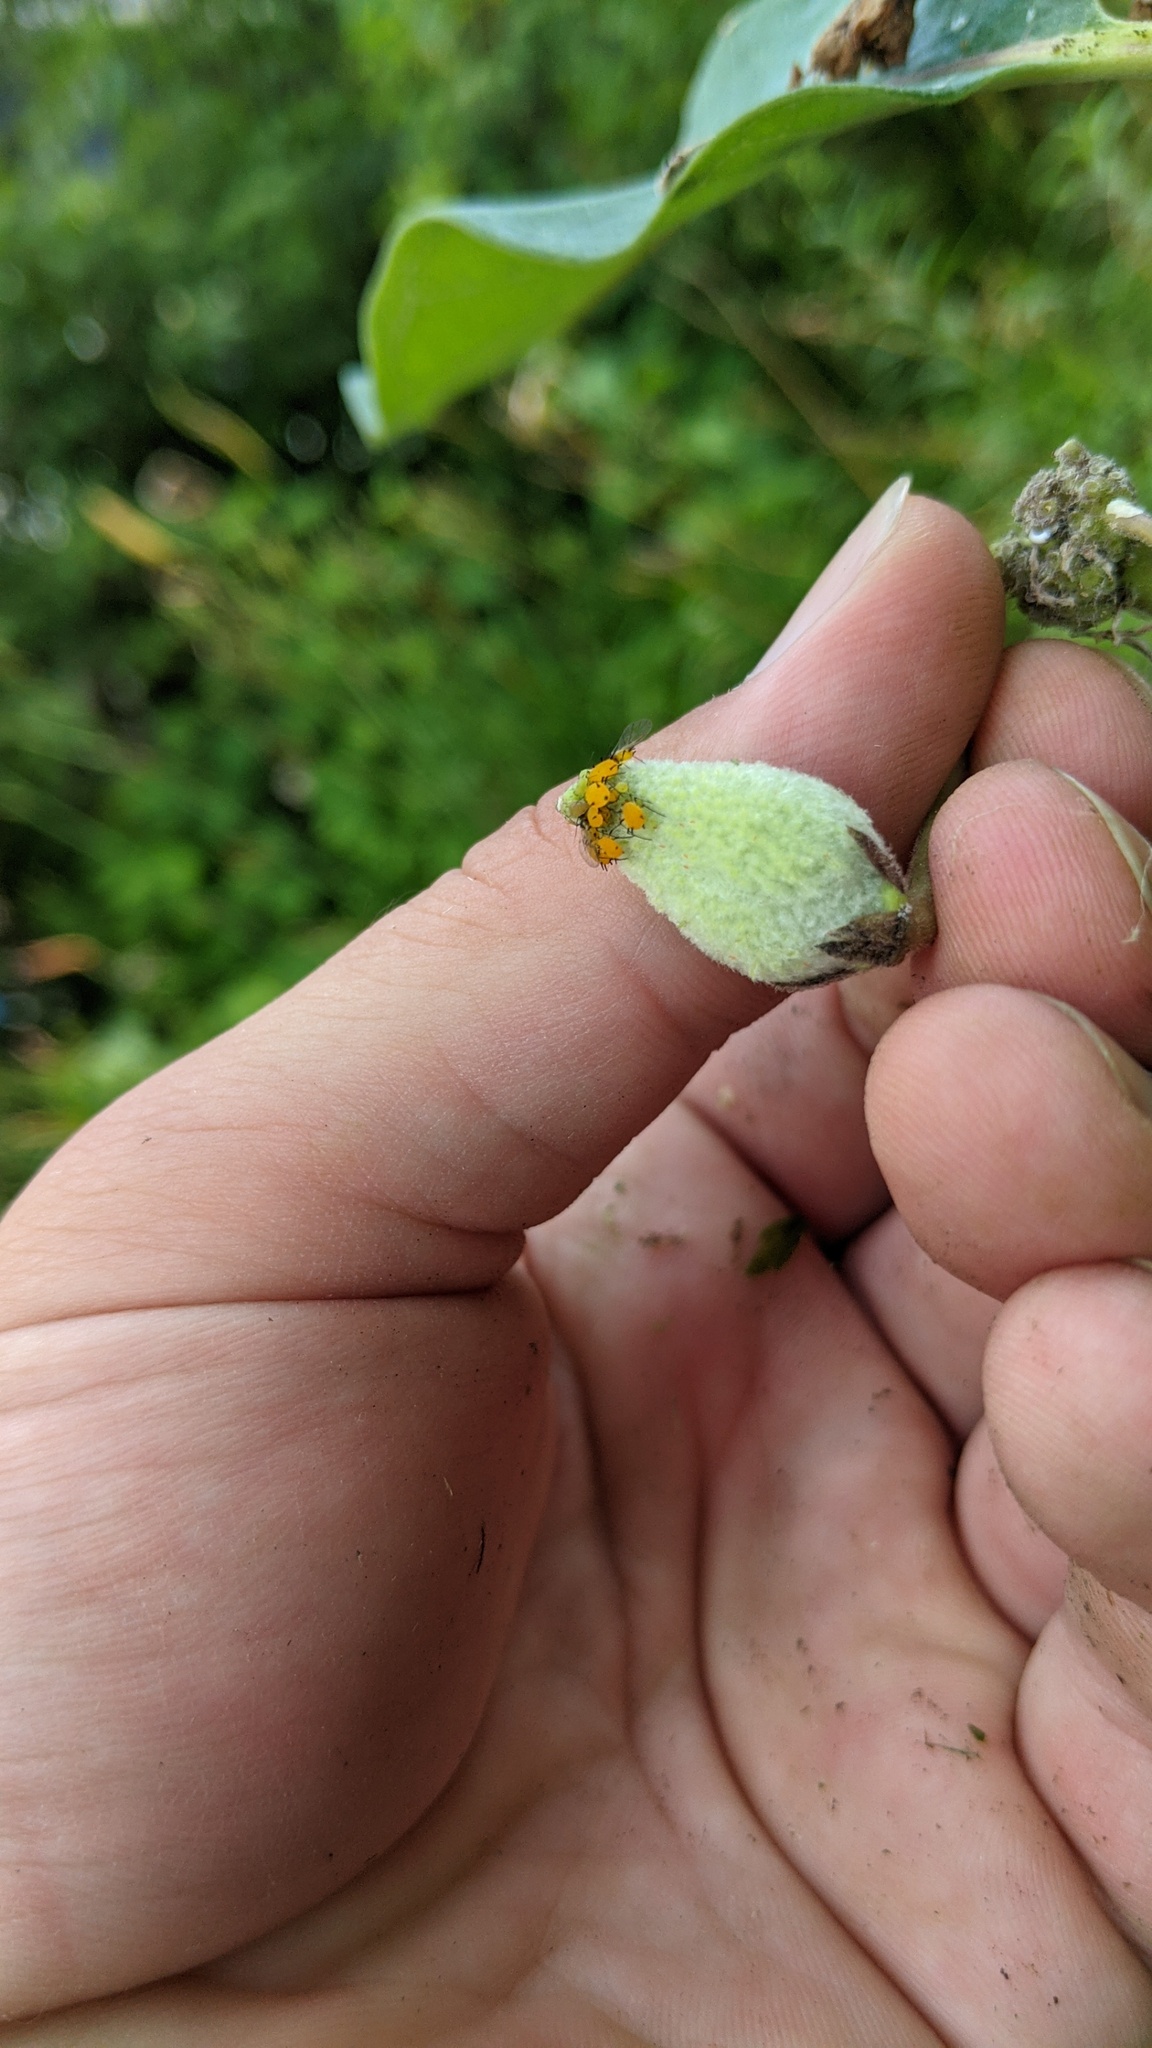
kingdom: Plantae
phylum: Tracheophyta
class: Magnoliopsida
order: Gentianales
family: Apocynaceae
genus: Asclepias
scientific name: Asclepias syriaca
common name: Common milkweed
